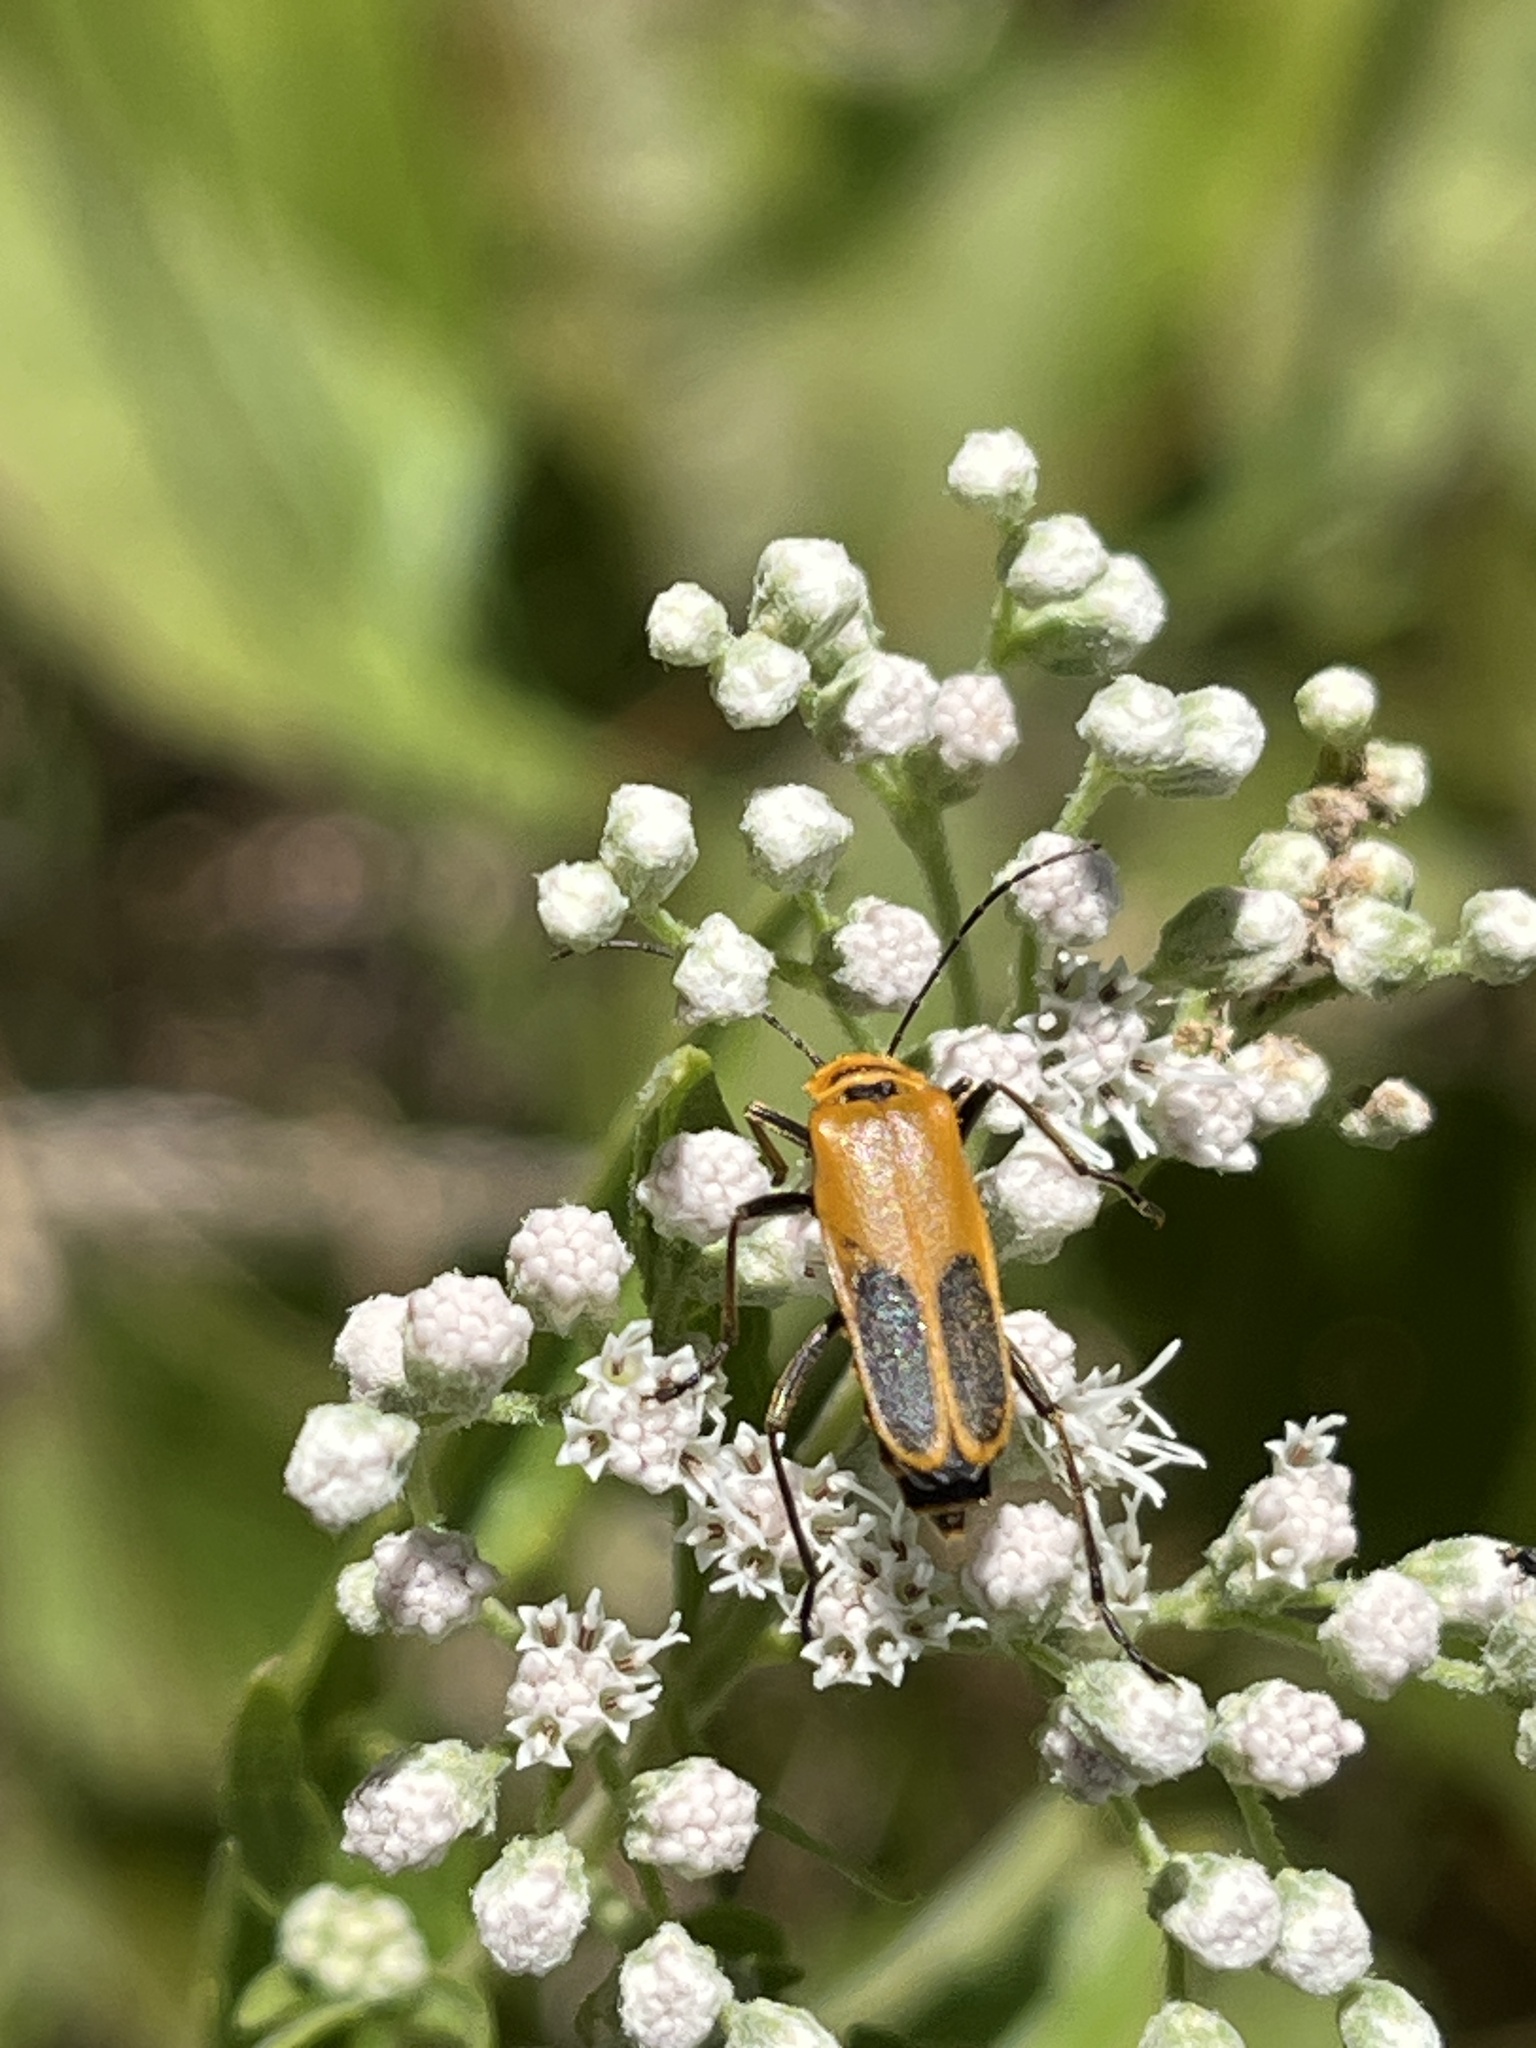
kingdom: Animalia
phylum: Arthropoda
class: Insecta
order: Coleoptera
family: Cantharidae
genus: Chauliognathus
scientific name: Chauliognathus pensylvanicus
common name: Goldenrod soldier beetle
